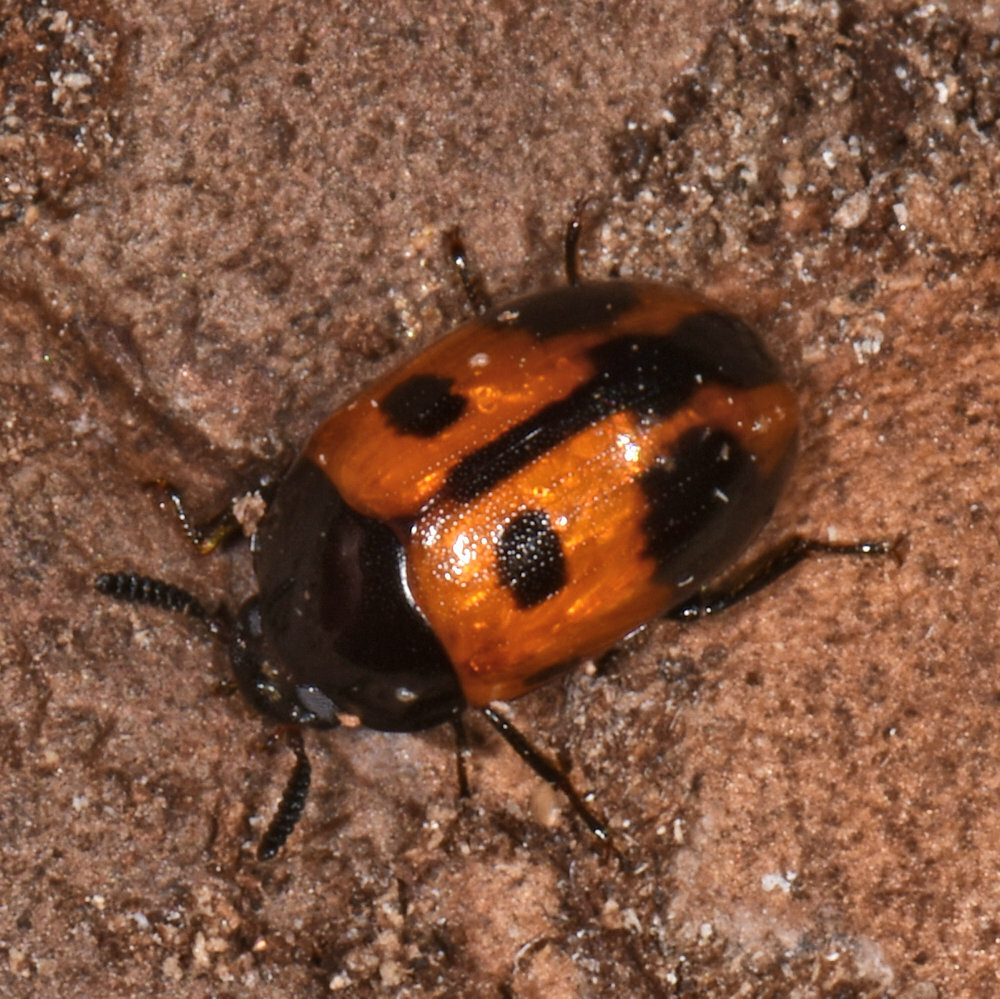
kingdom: Animalia
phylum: Arthropoda
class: Insecta
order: Coleoptera
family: Tenebrionidae
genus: Diaperis
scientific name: Diaperis maculata
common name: Darkling beetle
